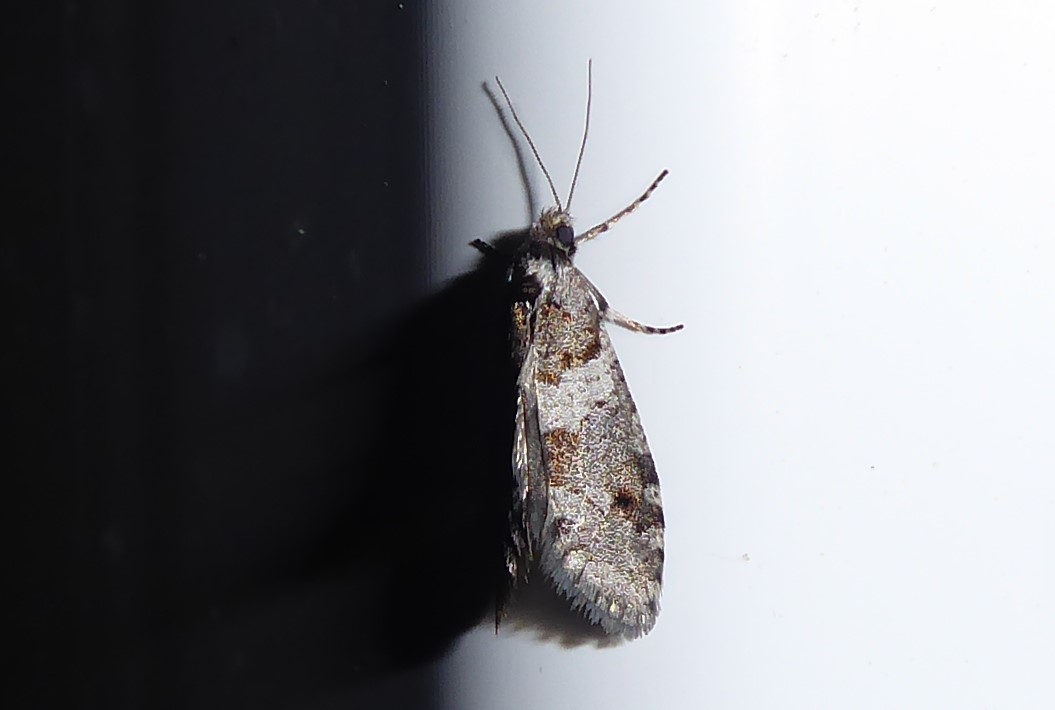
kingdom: Animalia
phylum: Arthropoda
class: Insecta
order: Lepidoptera
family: Psychidae
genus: Lepidoscia
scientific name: Lepidoscia heliochares
